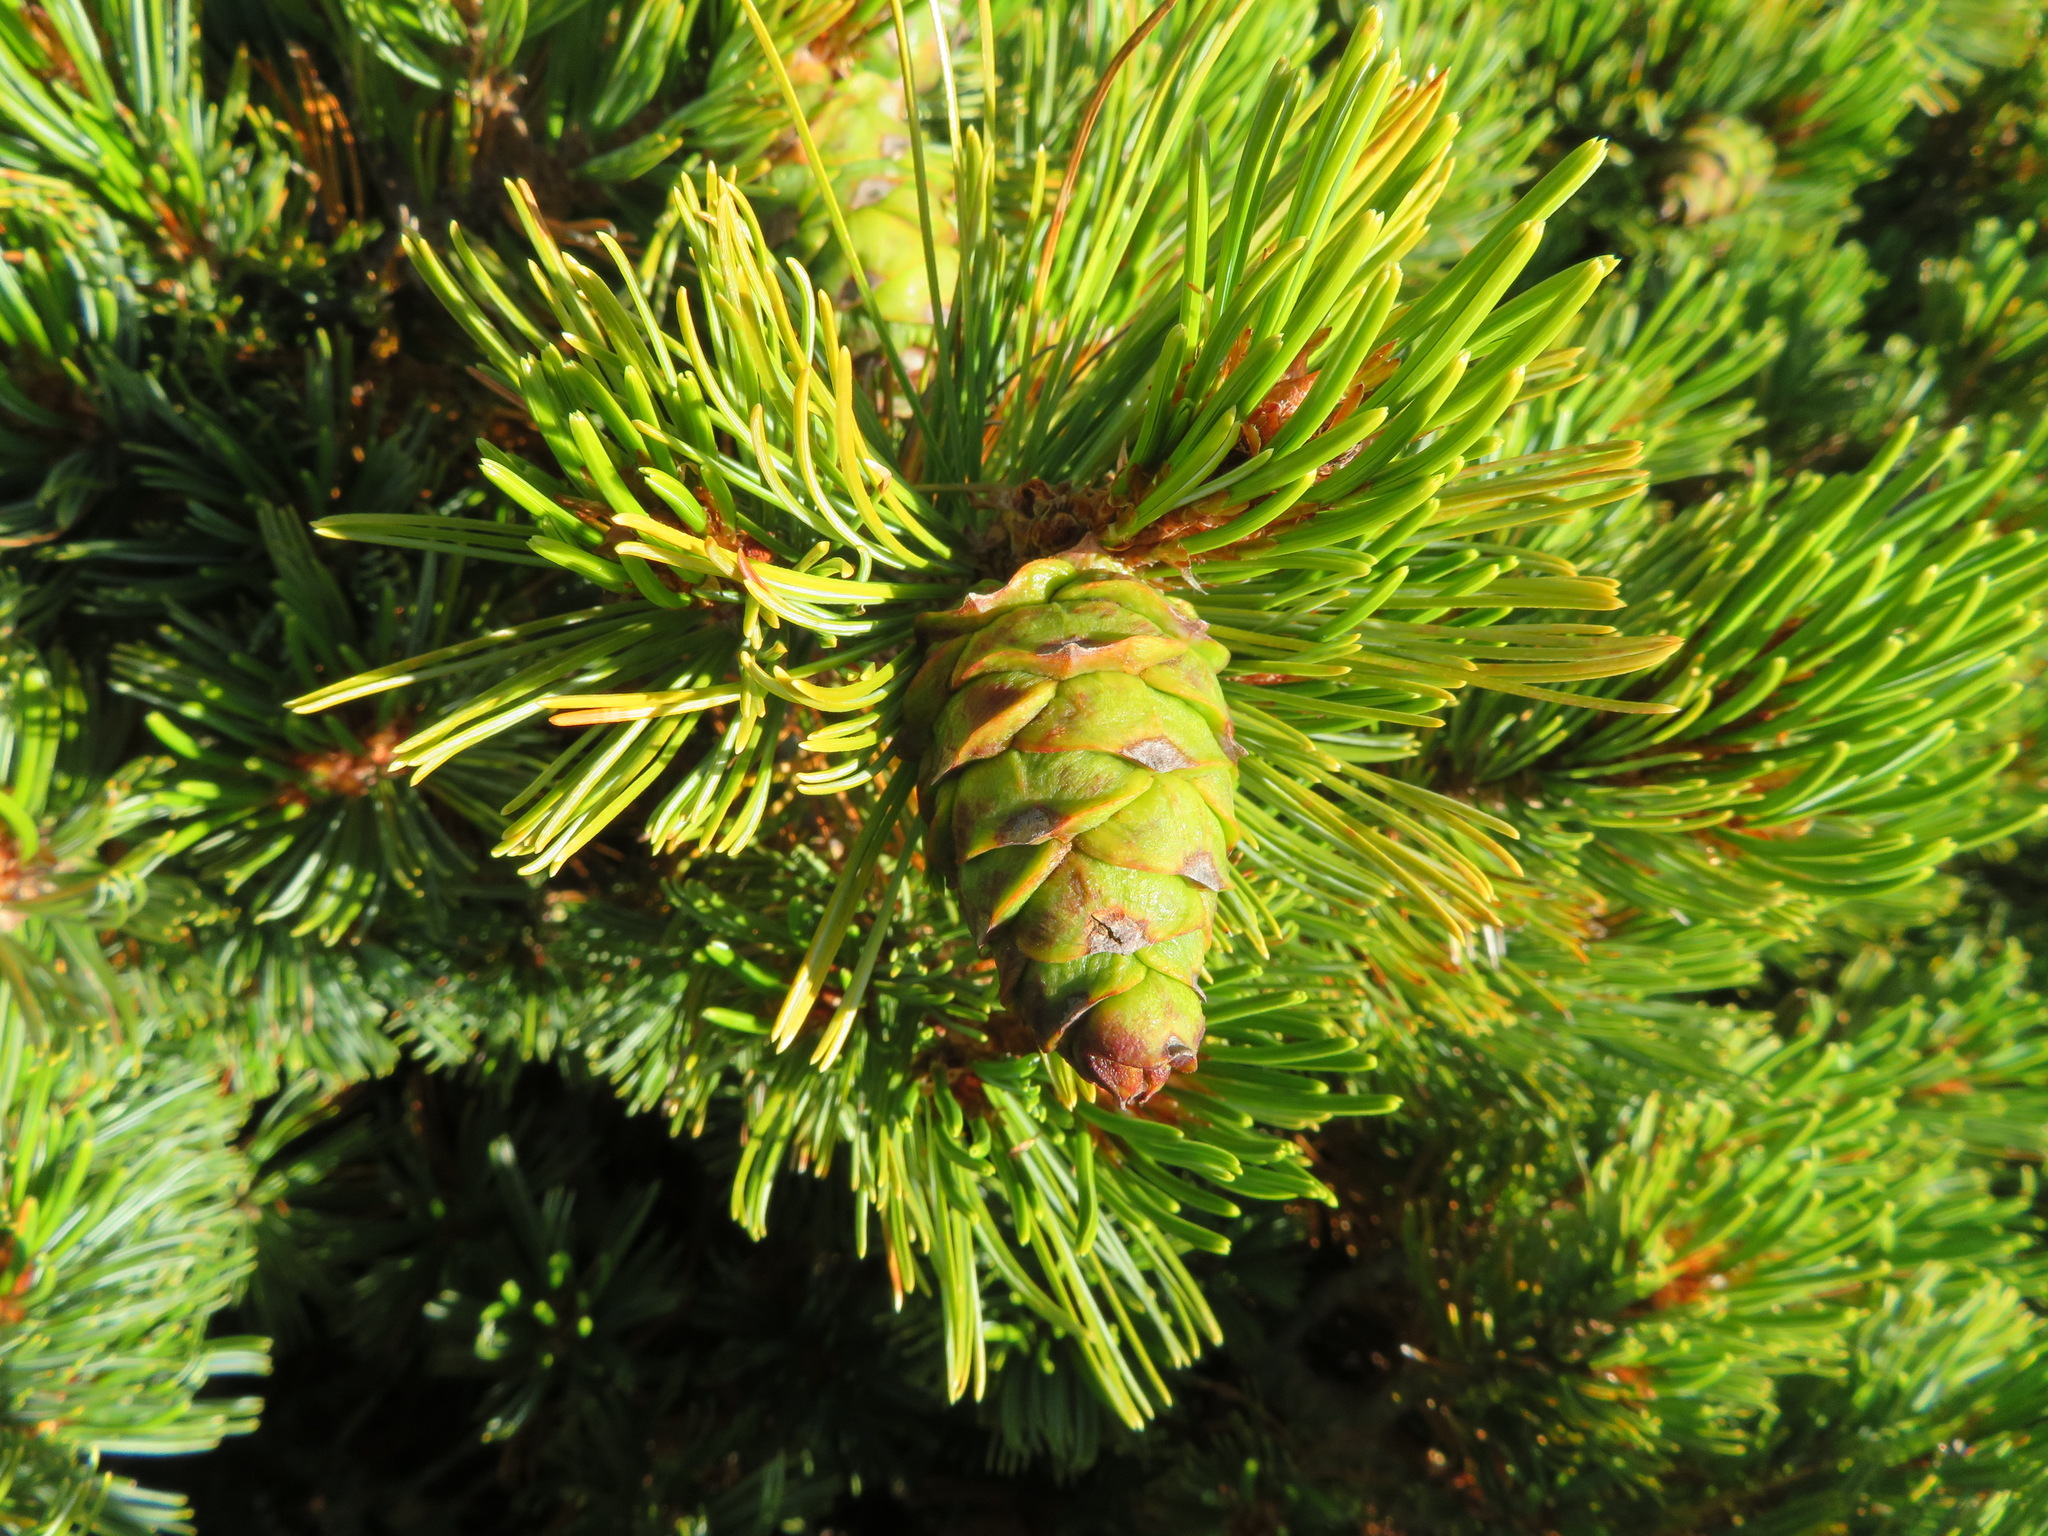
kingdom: Plantae
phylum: Tracheophyta
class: Pinopsida
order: Pinales
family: Pinaceae
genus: Pinus
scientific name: Pinus pumila
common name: Dwarf siberian pine
